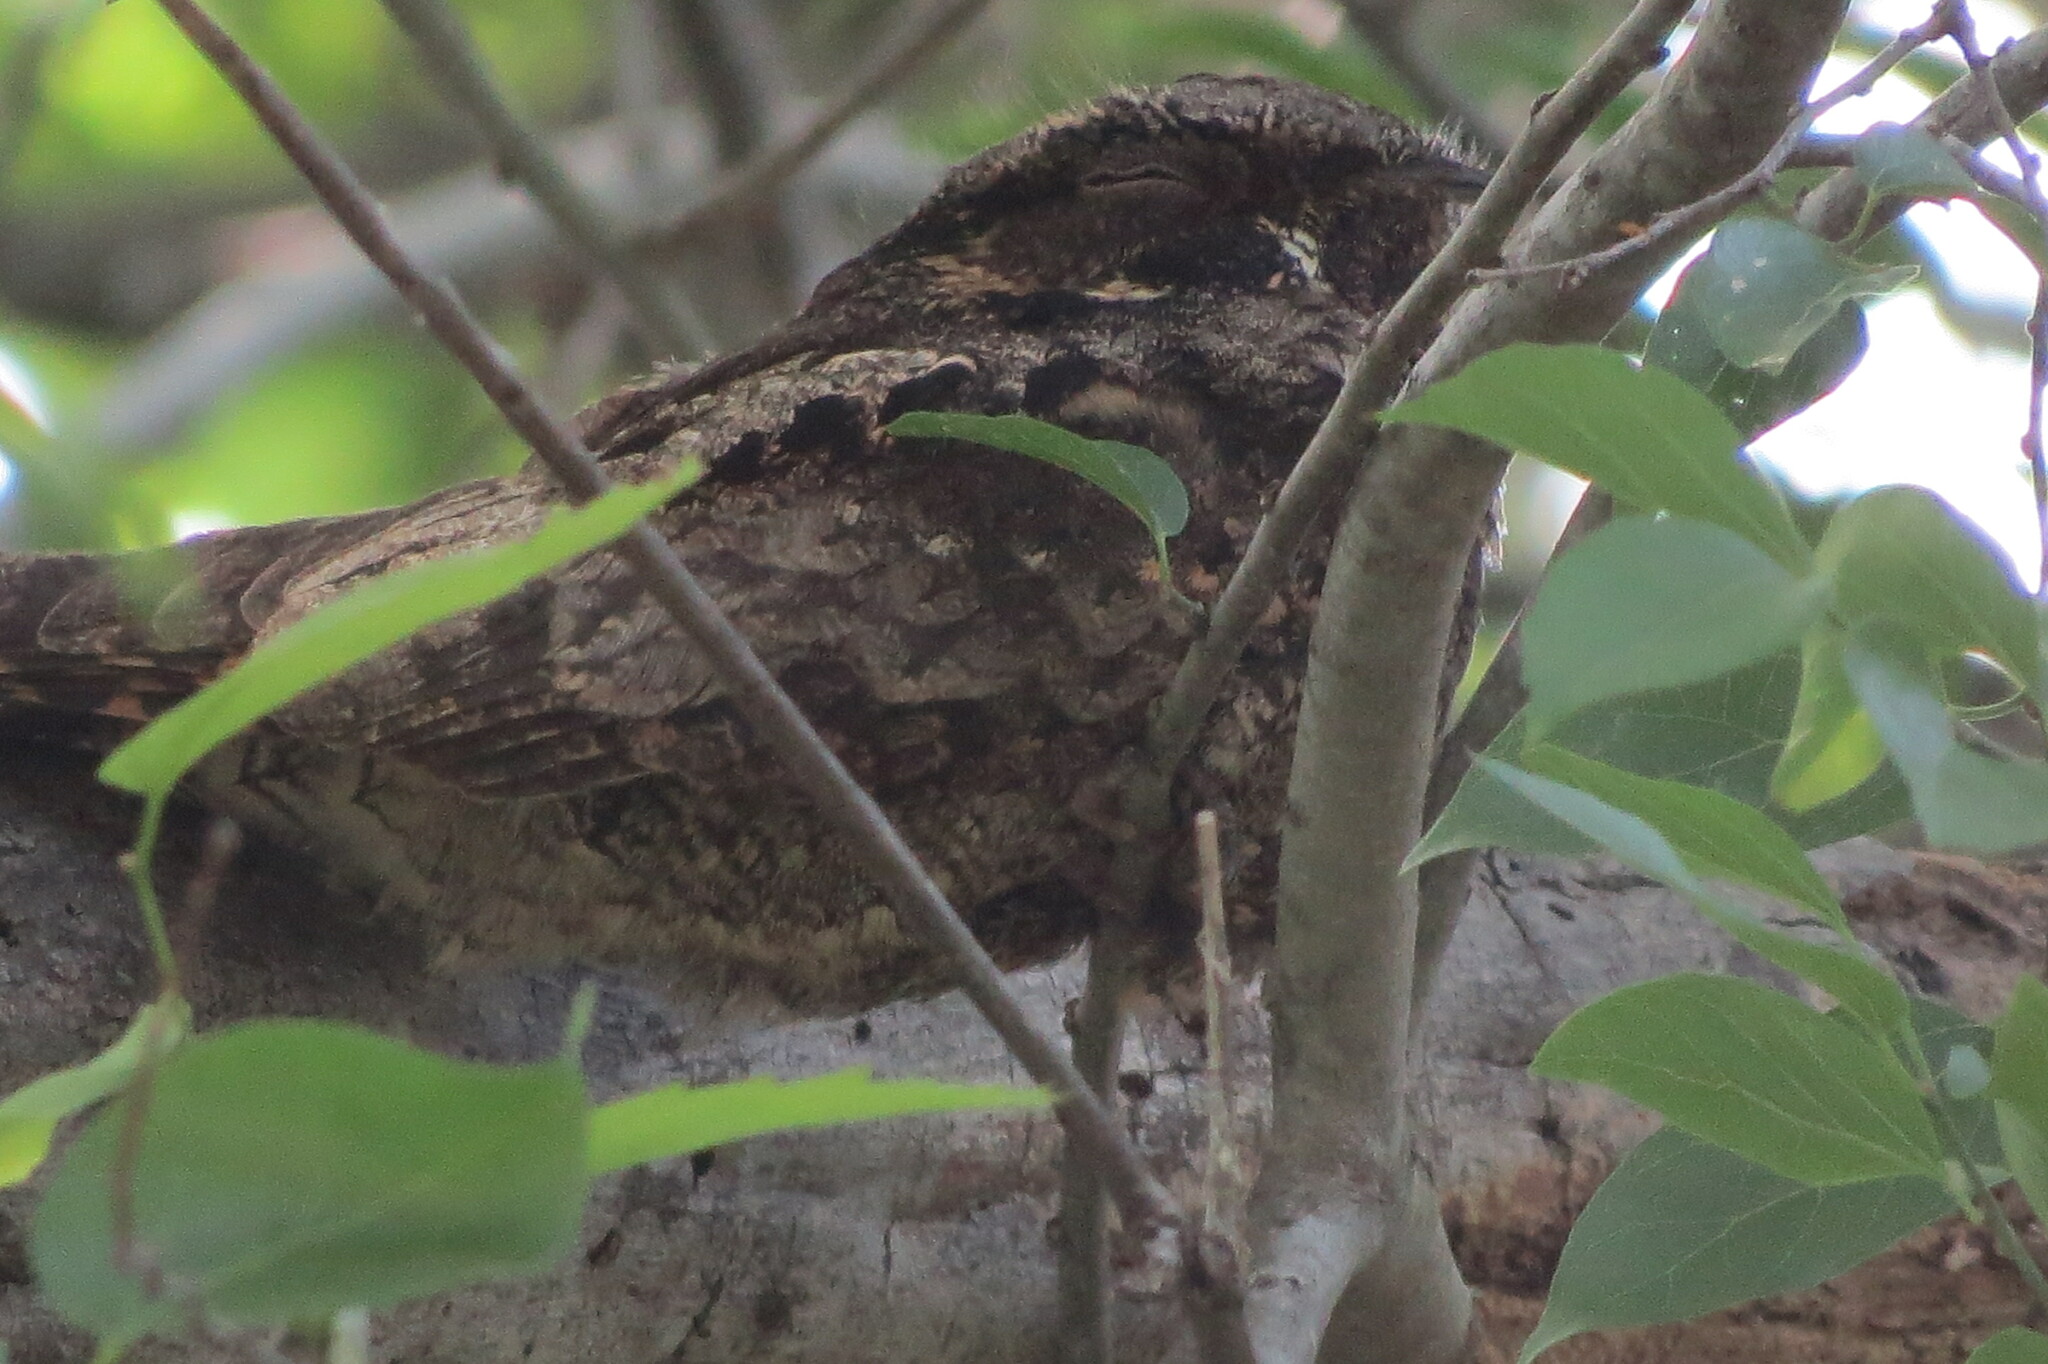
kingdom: Animalia
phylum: Chordata
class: Aves
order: Caprimulgiformes
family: Caprimulgidae
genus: Antrostomus
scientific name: Antrostomus vociferus
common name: Eastern whip-poor-will
